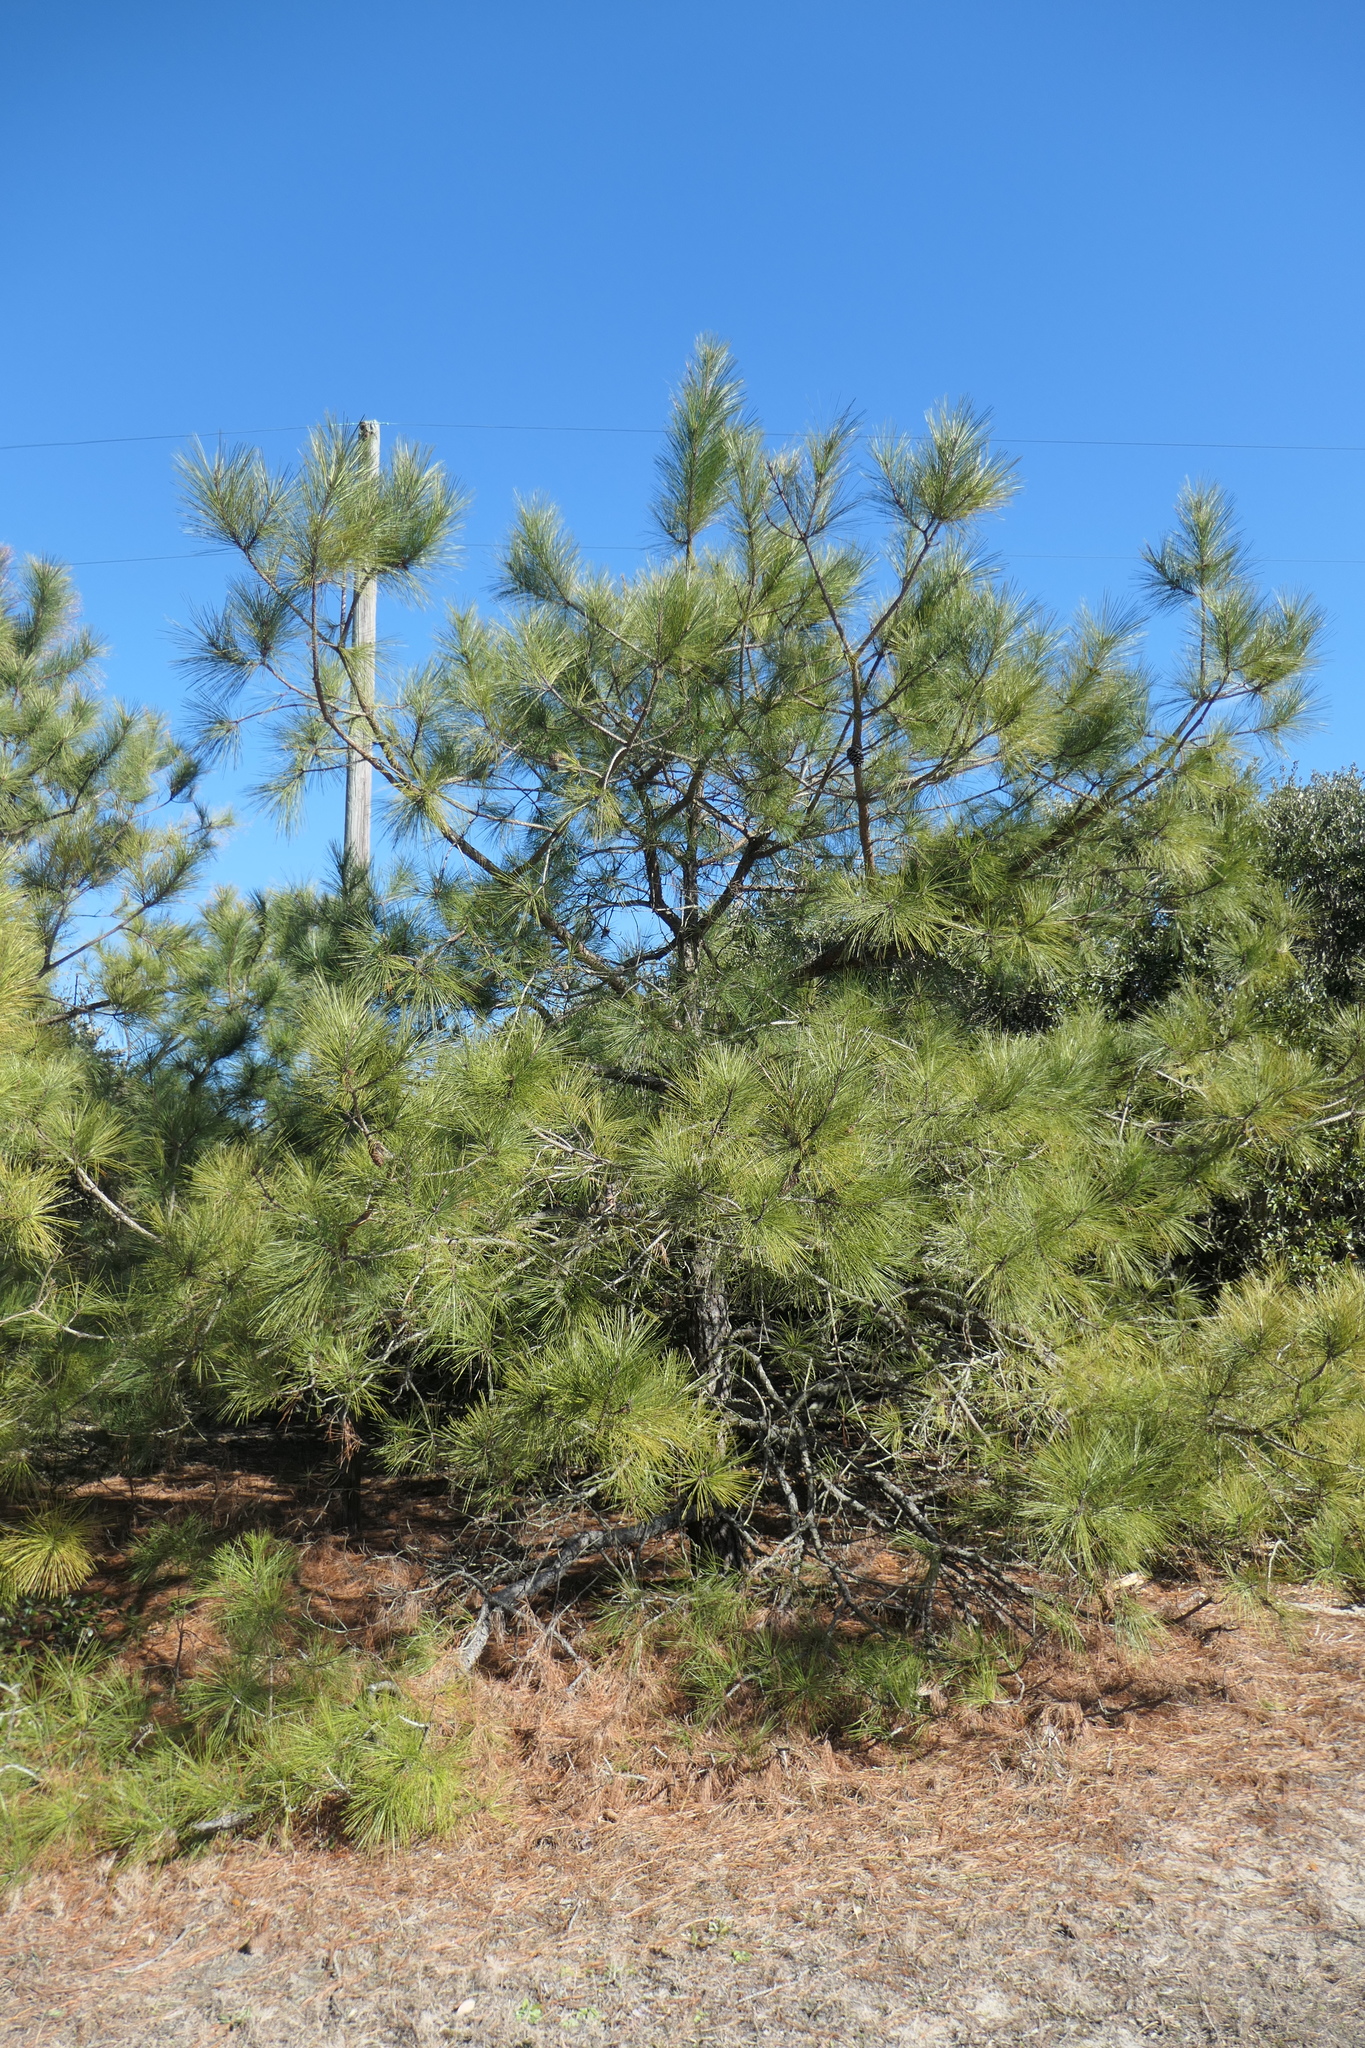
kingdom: Plantae
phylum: Tracheophyta
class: Pinopsida
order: Pinales
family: Pinaceae
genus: Pinus
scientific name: Pinus taeda
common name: Loblolly pine
